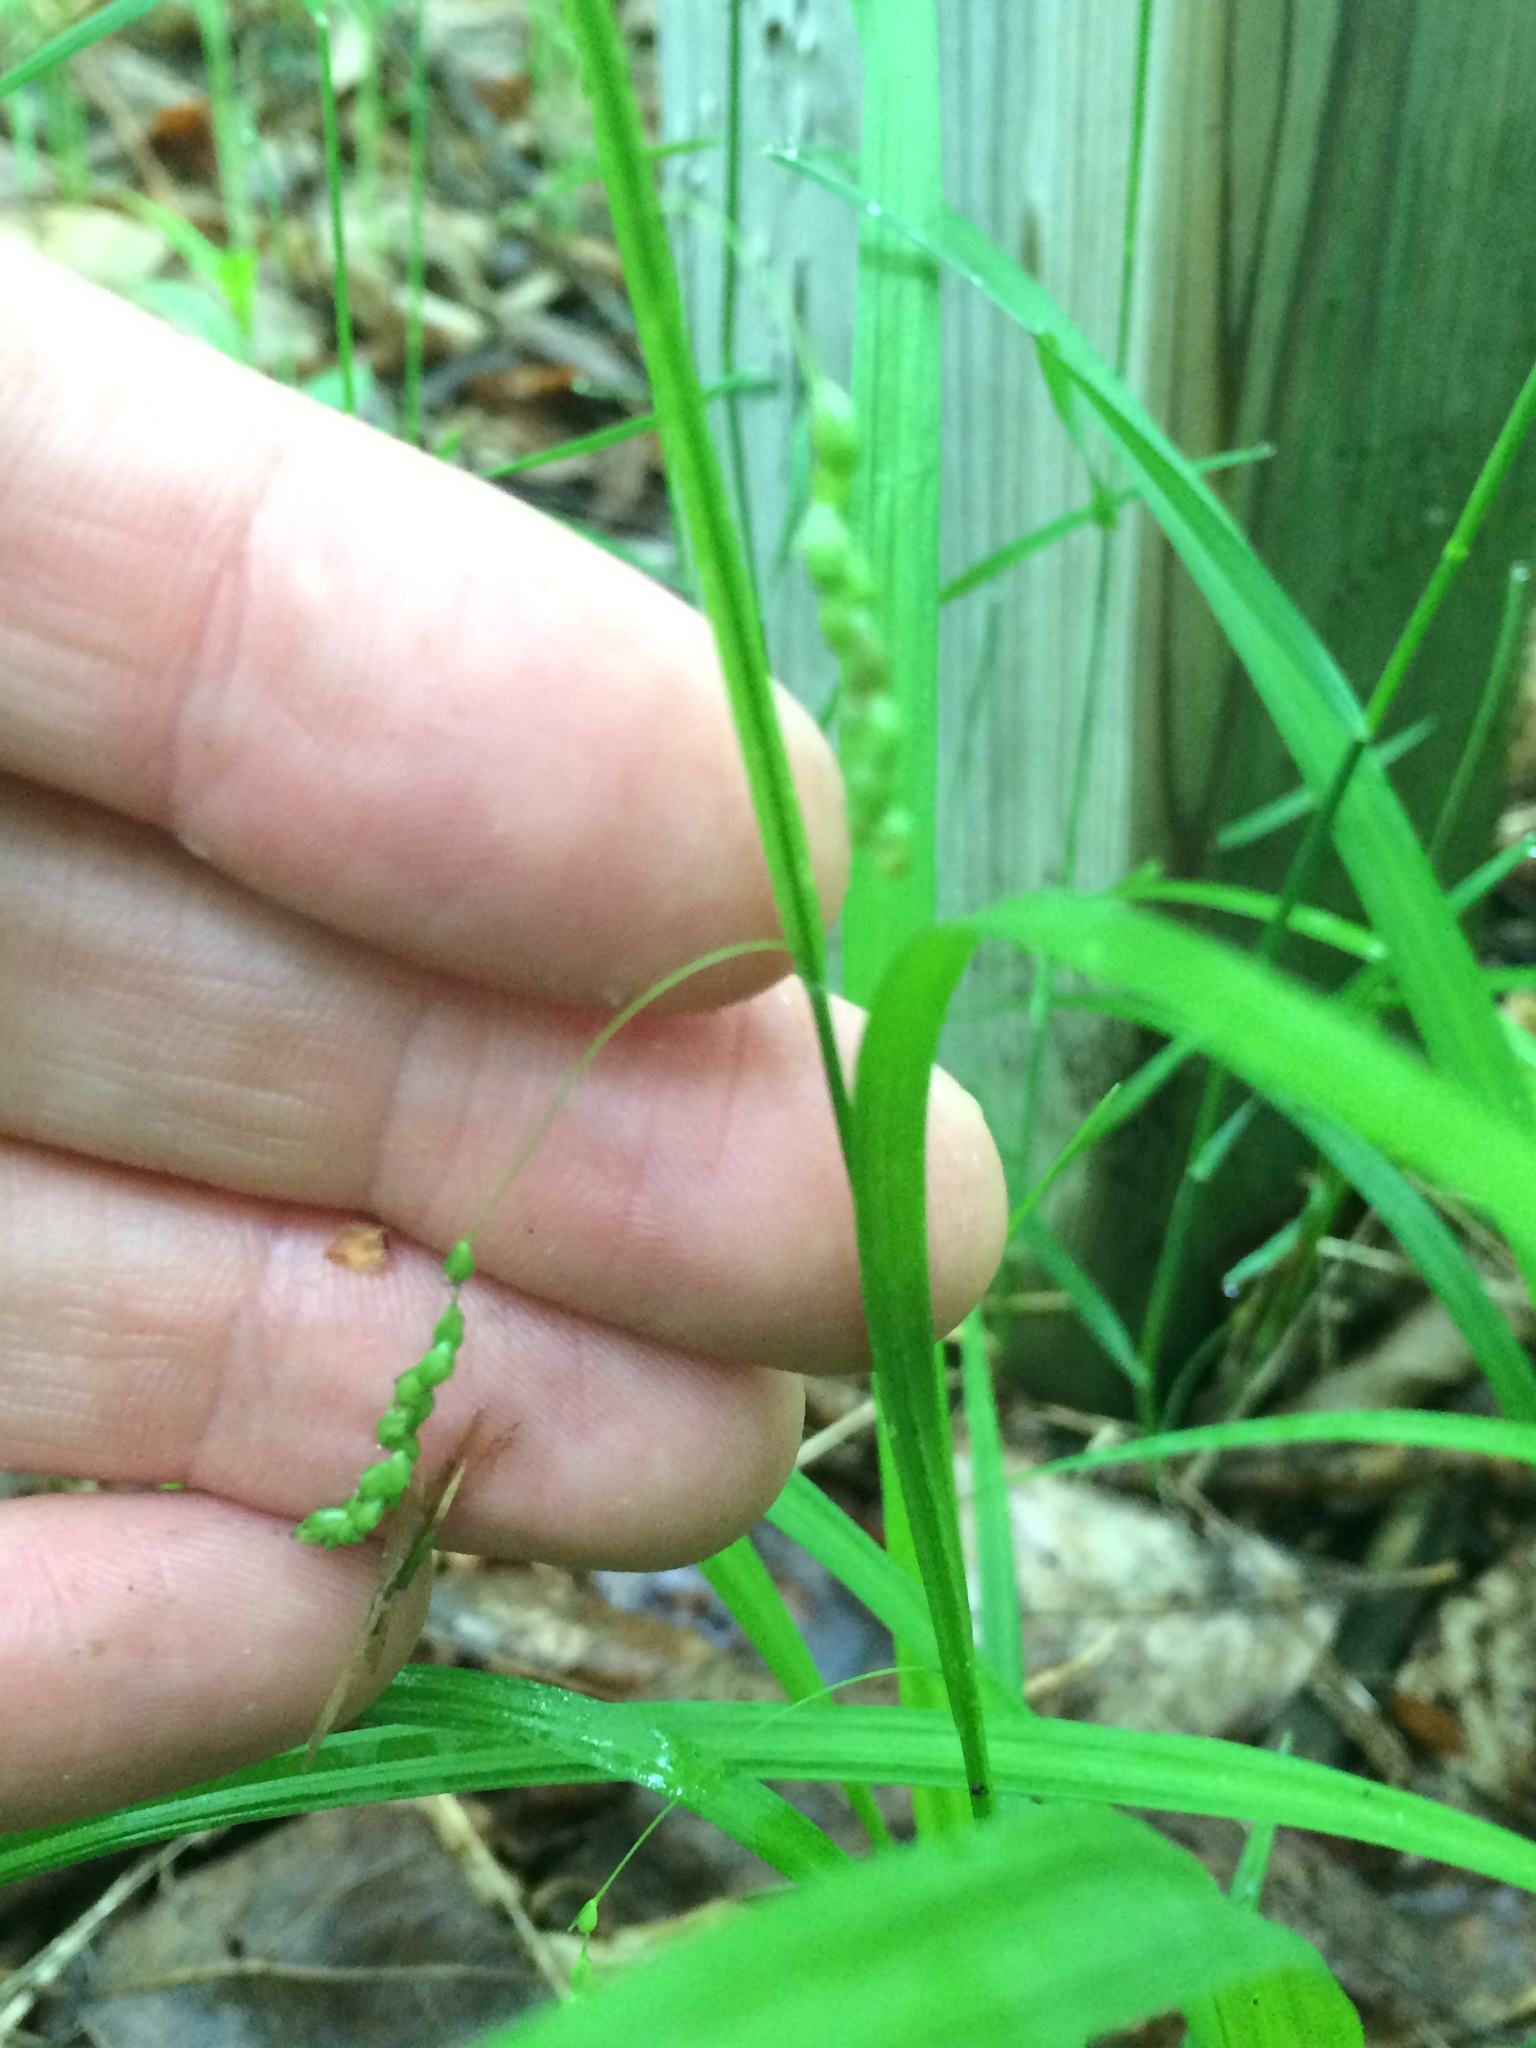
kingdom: Plantae
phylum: Tracheophyta
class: Liliopsida
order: Poales
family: Cyperaceae
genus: Carex
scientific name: Carex gracillima
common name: Graceful sedge
